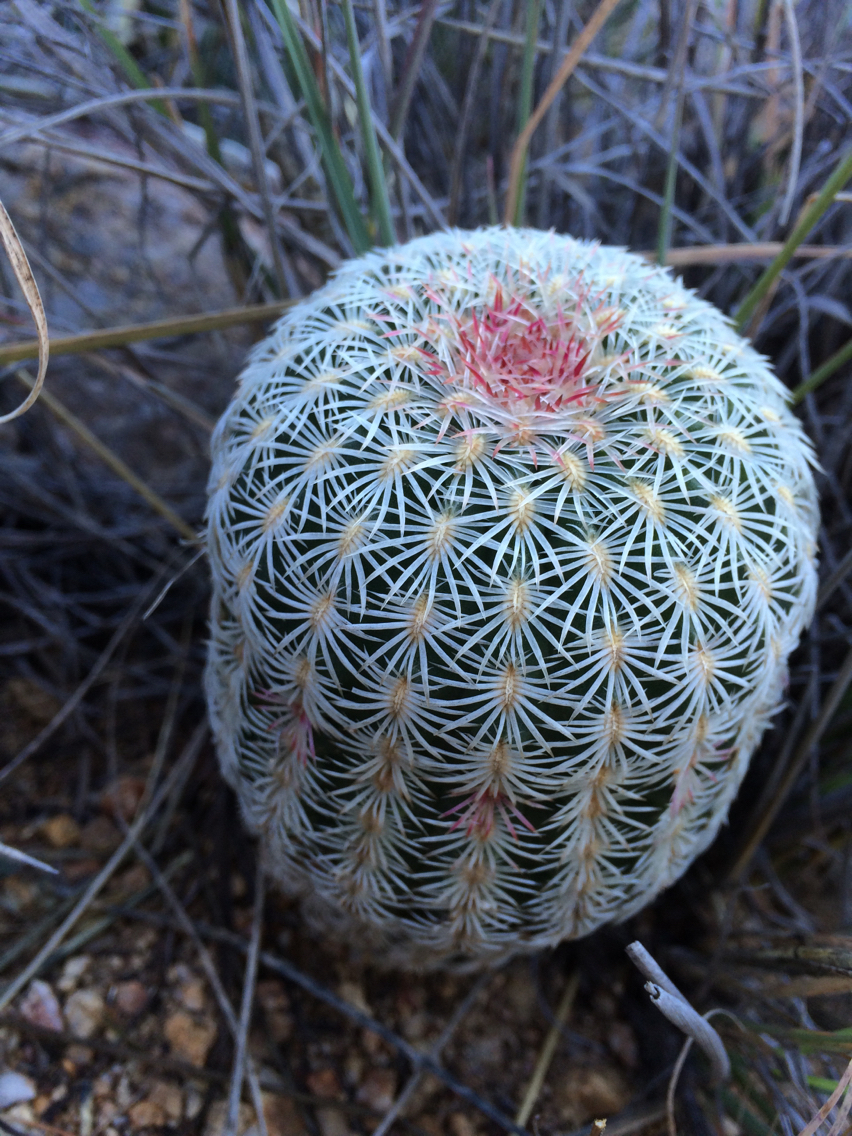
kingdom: Plantae
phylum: Tracheophyta
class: Magnoliopsida
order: Caryophyllales
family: Cactaceae
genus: Echinocereus
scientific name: Echinocereus rigidissimus
